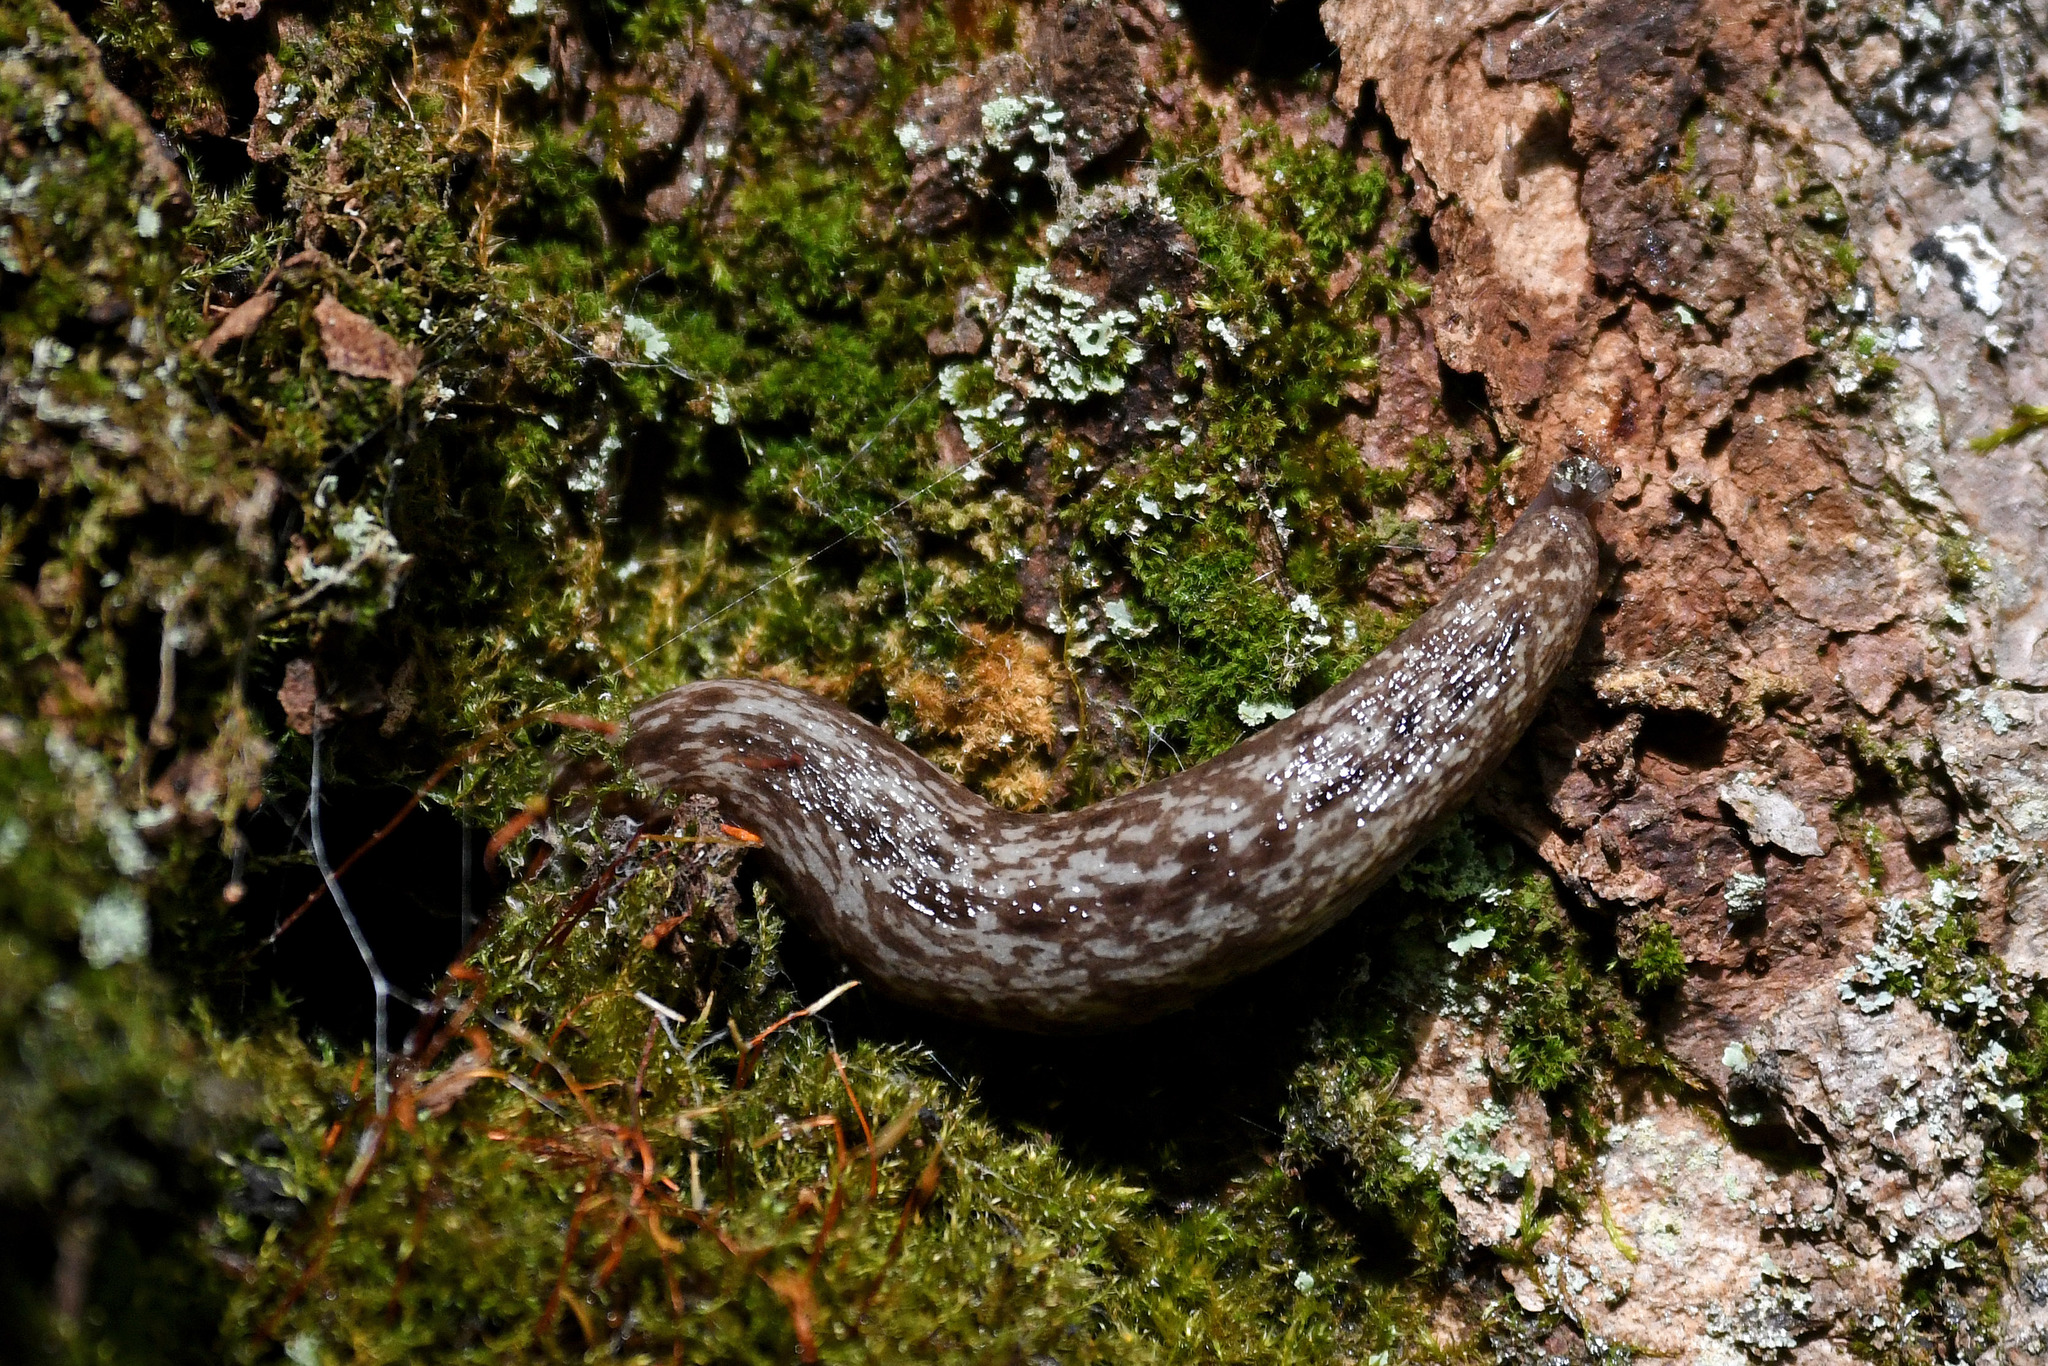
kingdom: Animalia
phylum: Mollusca
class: Gastropoda
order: Stylommatophora
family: Philomycidae
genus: Philomycus
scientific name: Philomycus flexuolaris
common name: Winding mantleslug
